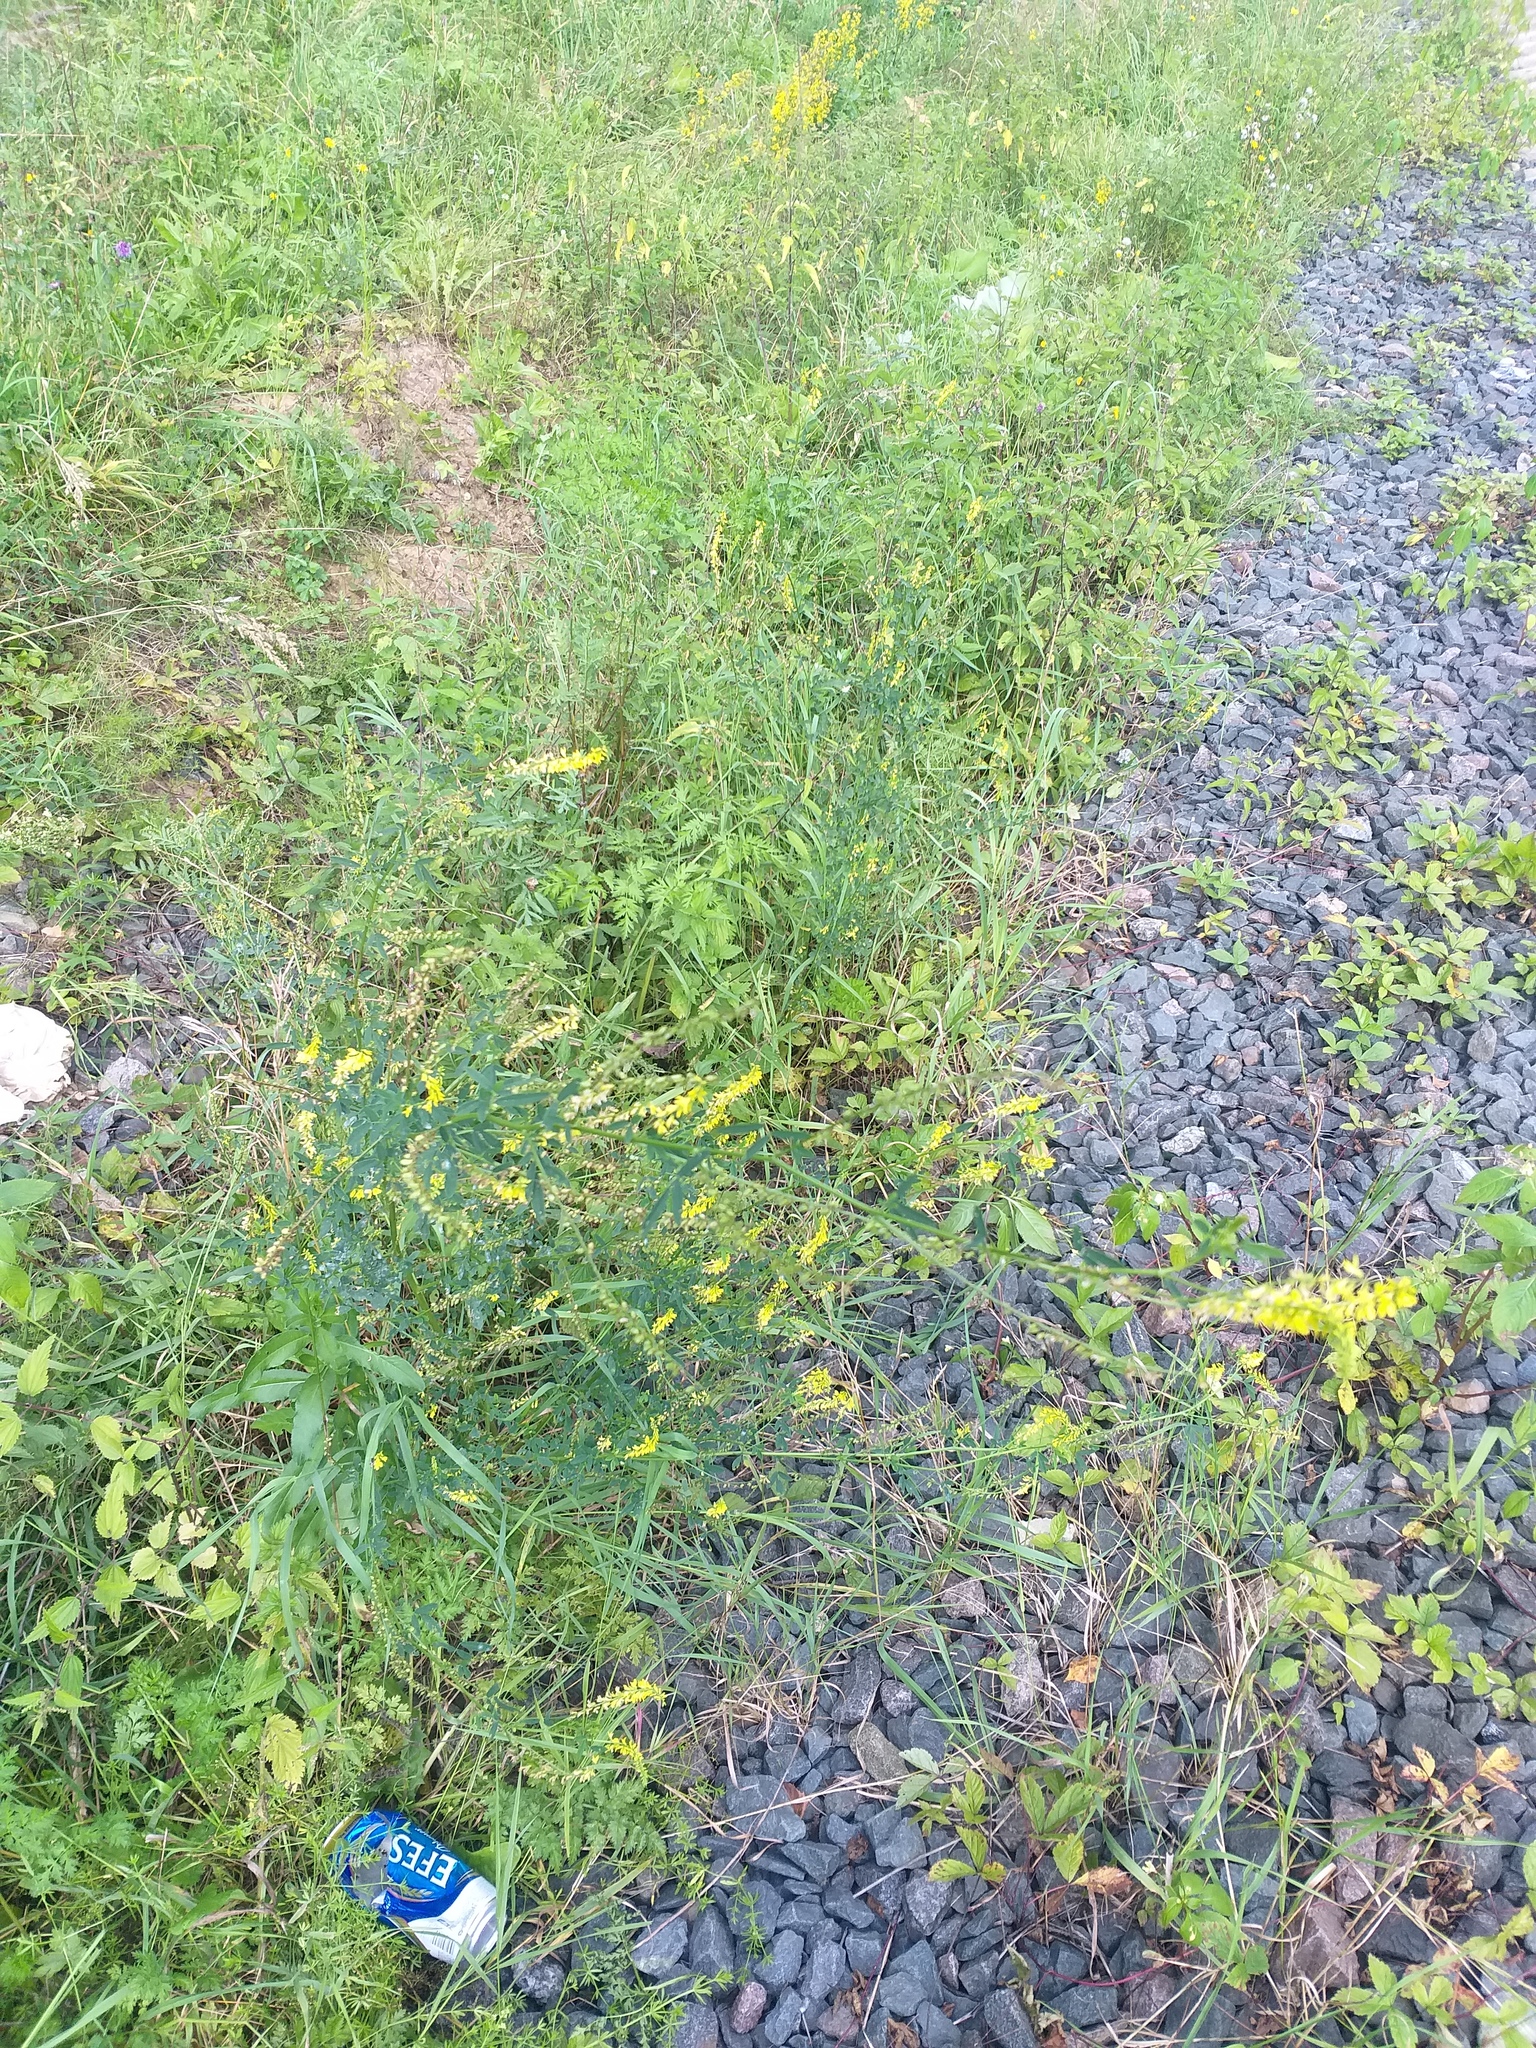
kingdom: Plantae
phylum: Tracheophyta
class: Magnoliopsida
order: Fabales
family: Fabaceae
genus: Melilotus
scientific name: Melilotus officinalis
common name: Sweetclover
